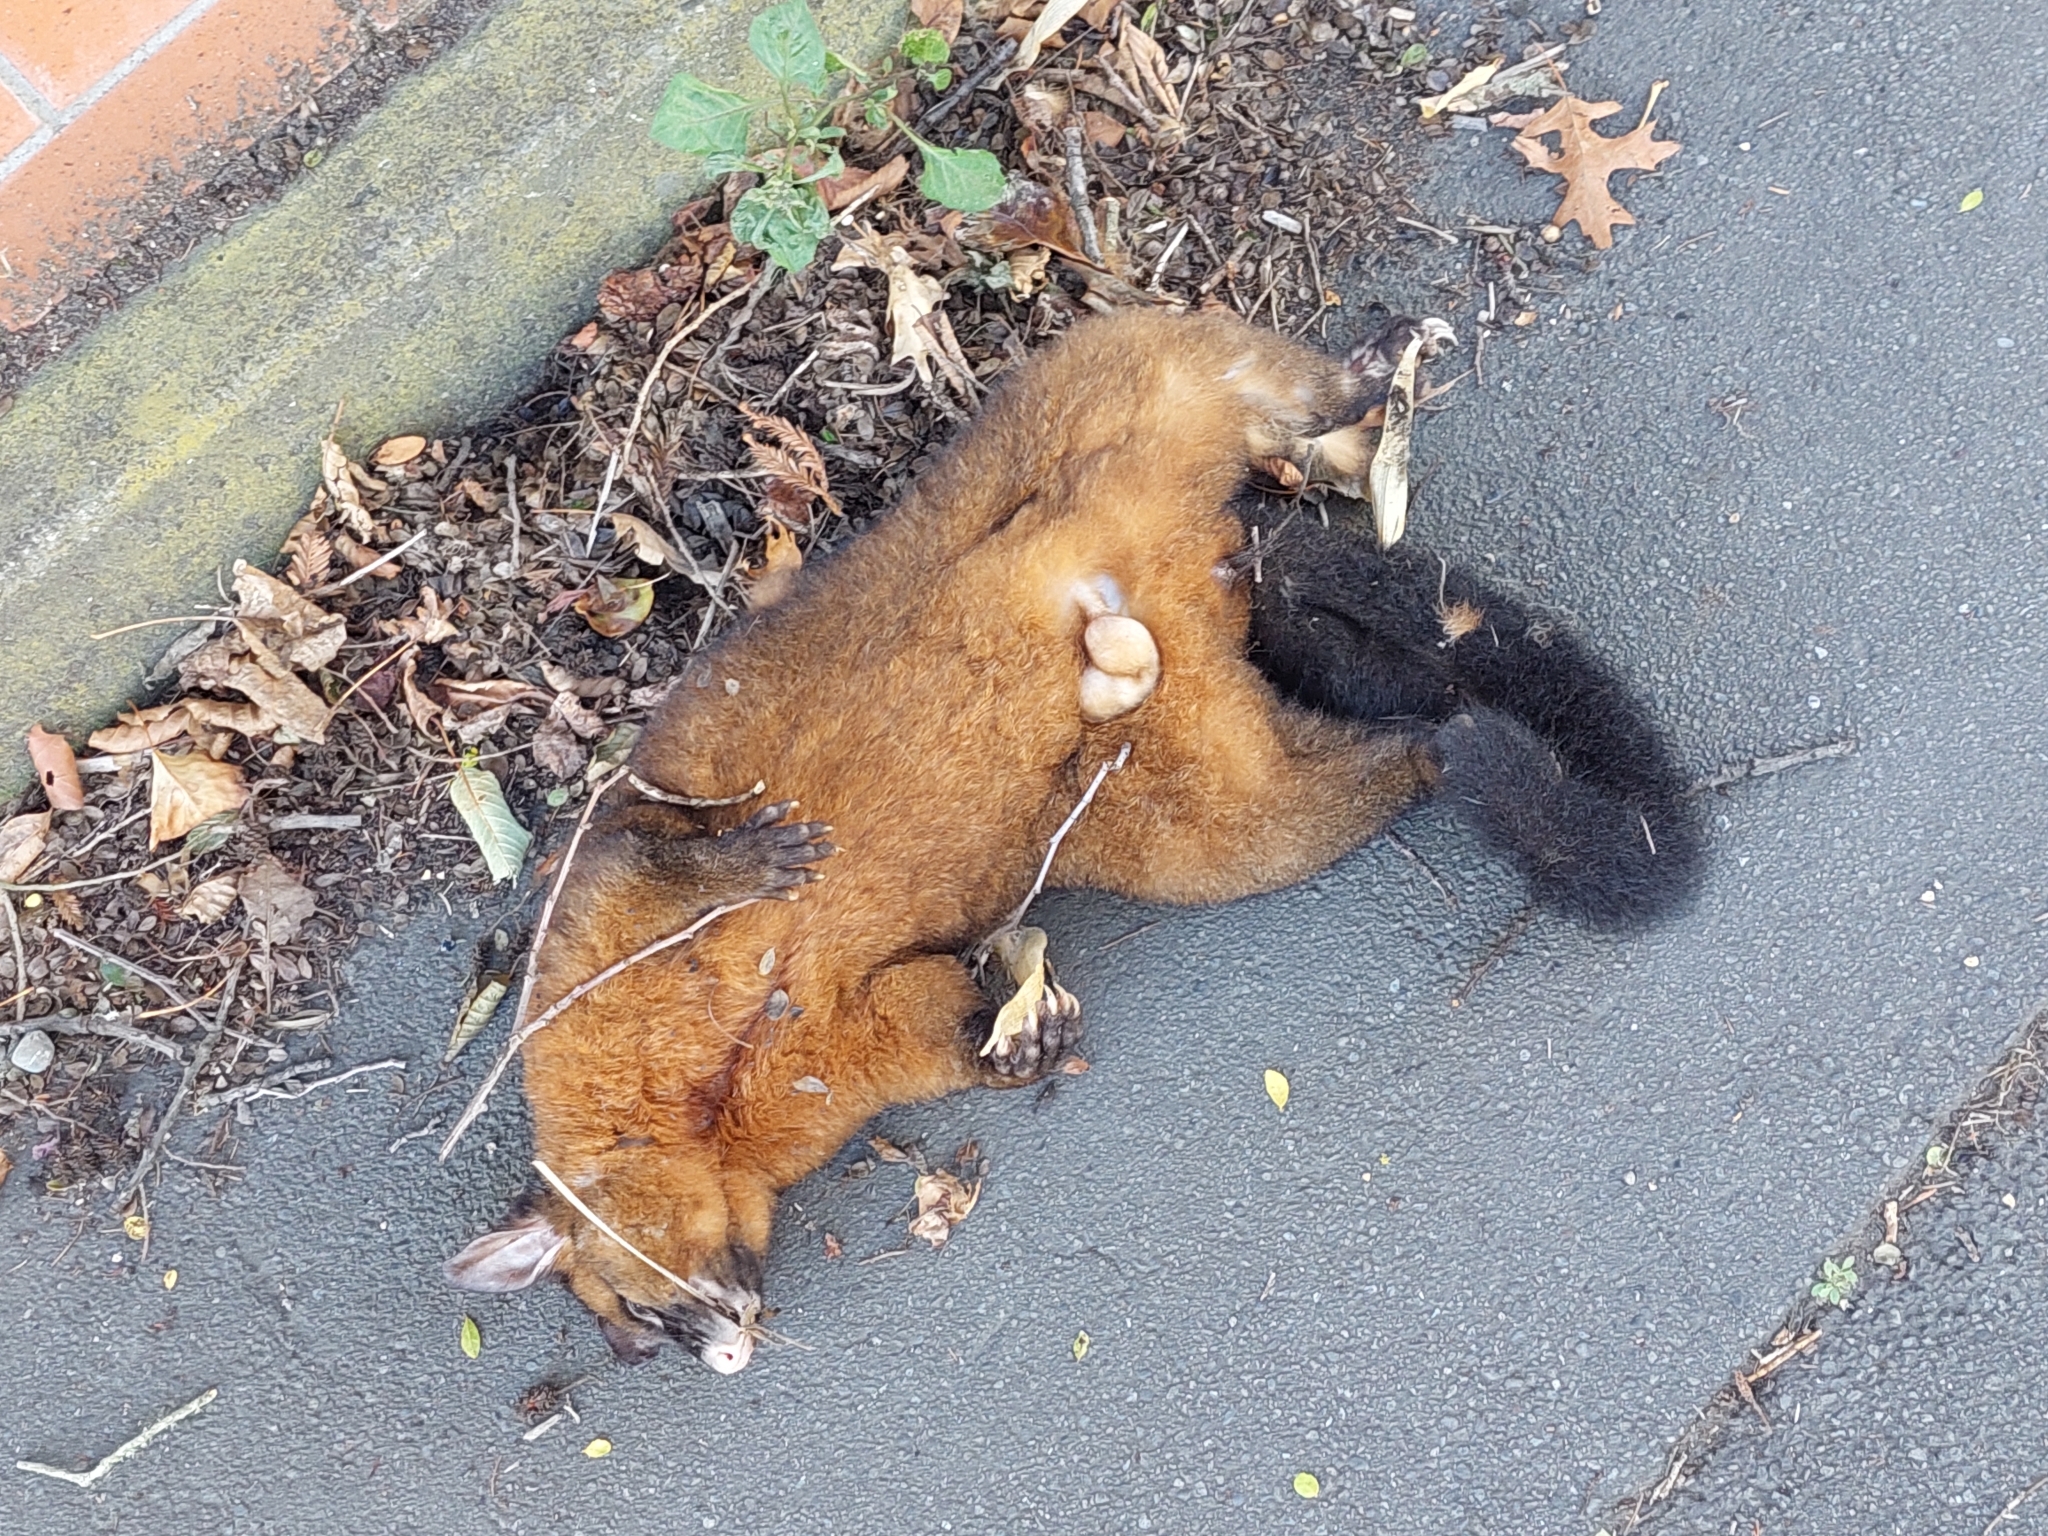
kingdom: Animalia
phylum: Chordata
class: Mammalia
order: Diprotodontia
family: Phalangeridae
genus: Trichosurus
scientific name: Trichosurus vulpecula
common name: Common brushtail
